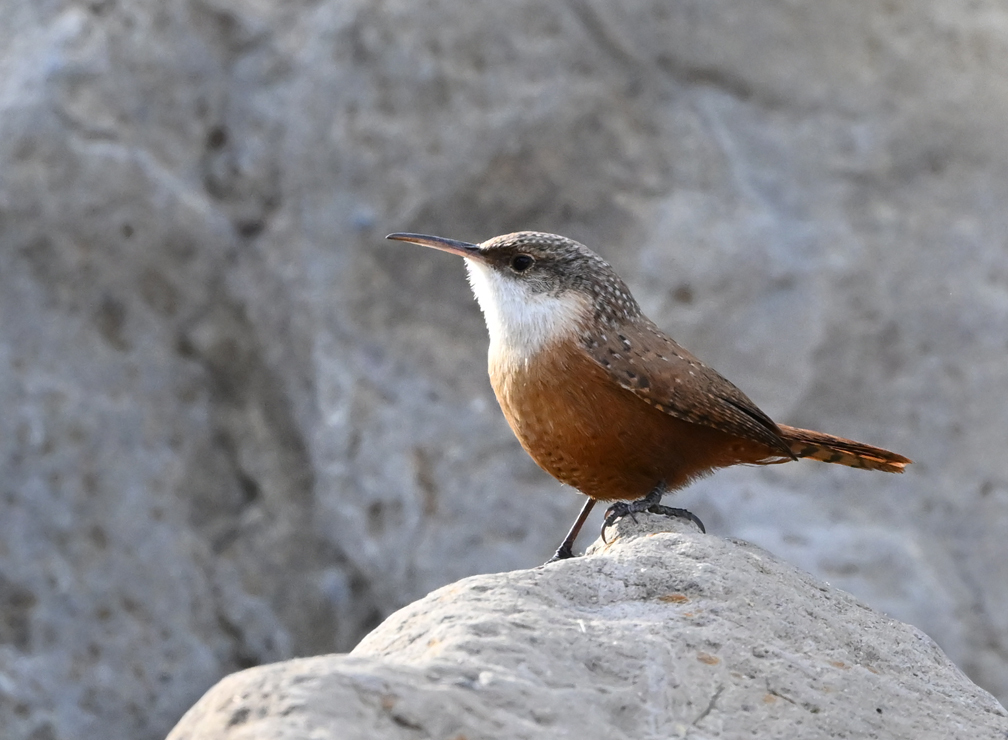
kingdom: Animalia
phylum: Chordata
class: Aves
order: Passeriformes
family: Troglodytidae
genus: Catherpes
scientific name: Catherpes mexicanus
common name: Canyon wren
